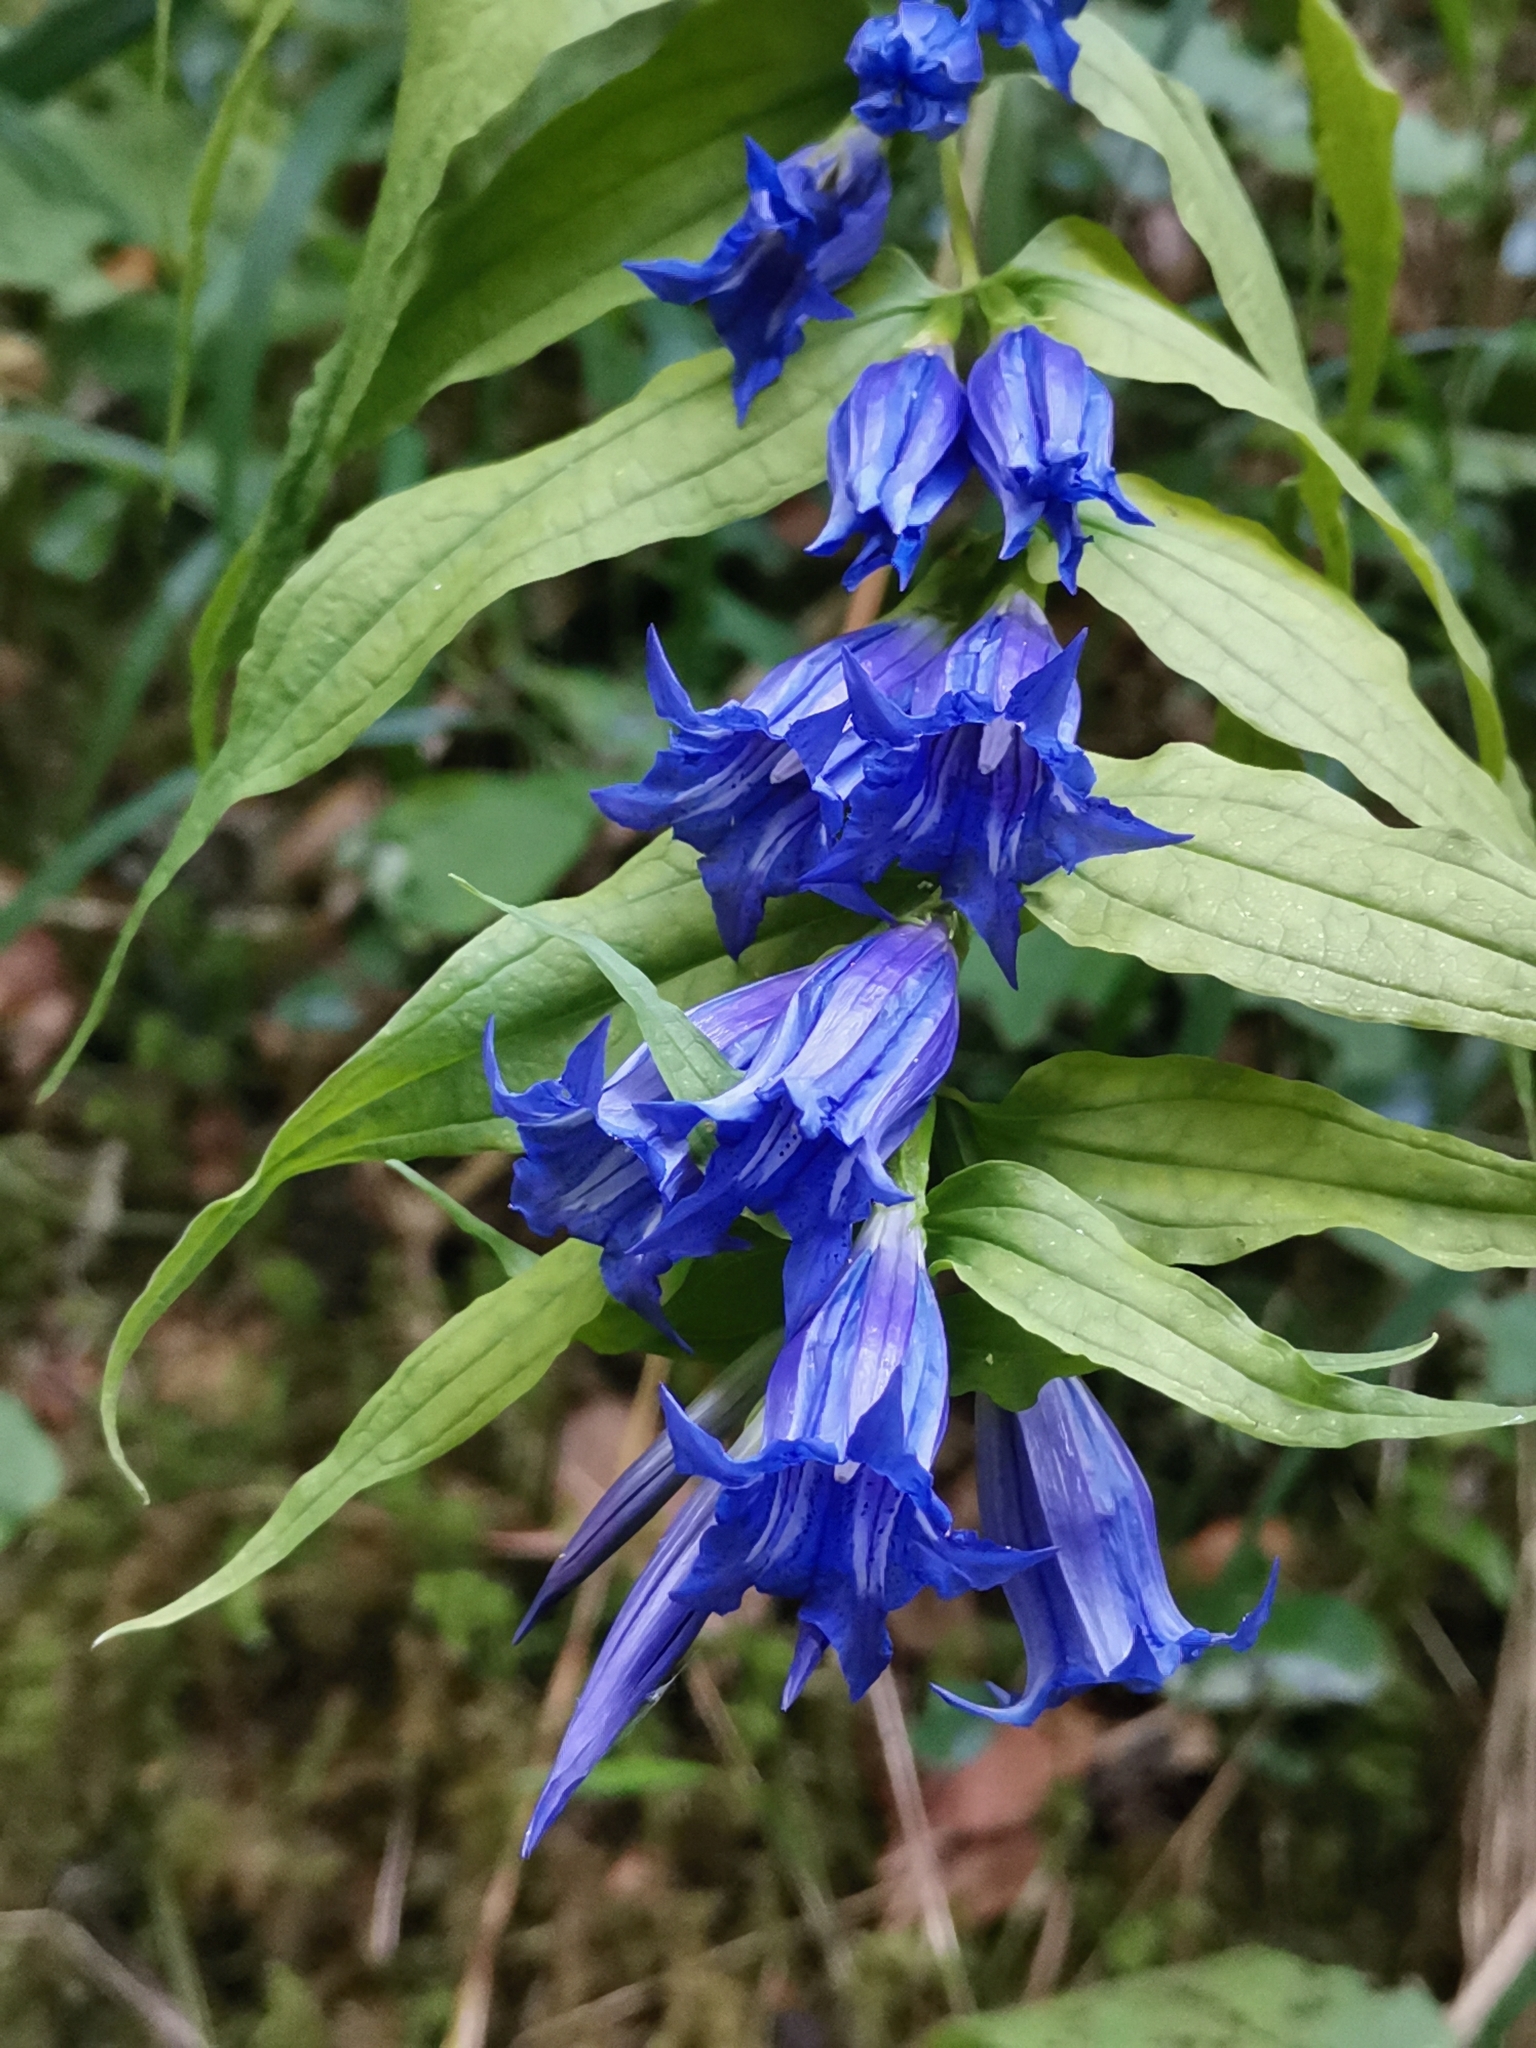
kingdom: Plantae
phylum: Tracheophyta
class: Magnoliopsida
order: Gentianales
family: Gentianaceae
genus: Gentiana
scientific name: Gentiana asclepiadea
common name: Willow gentian
